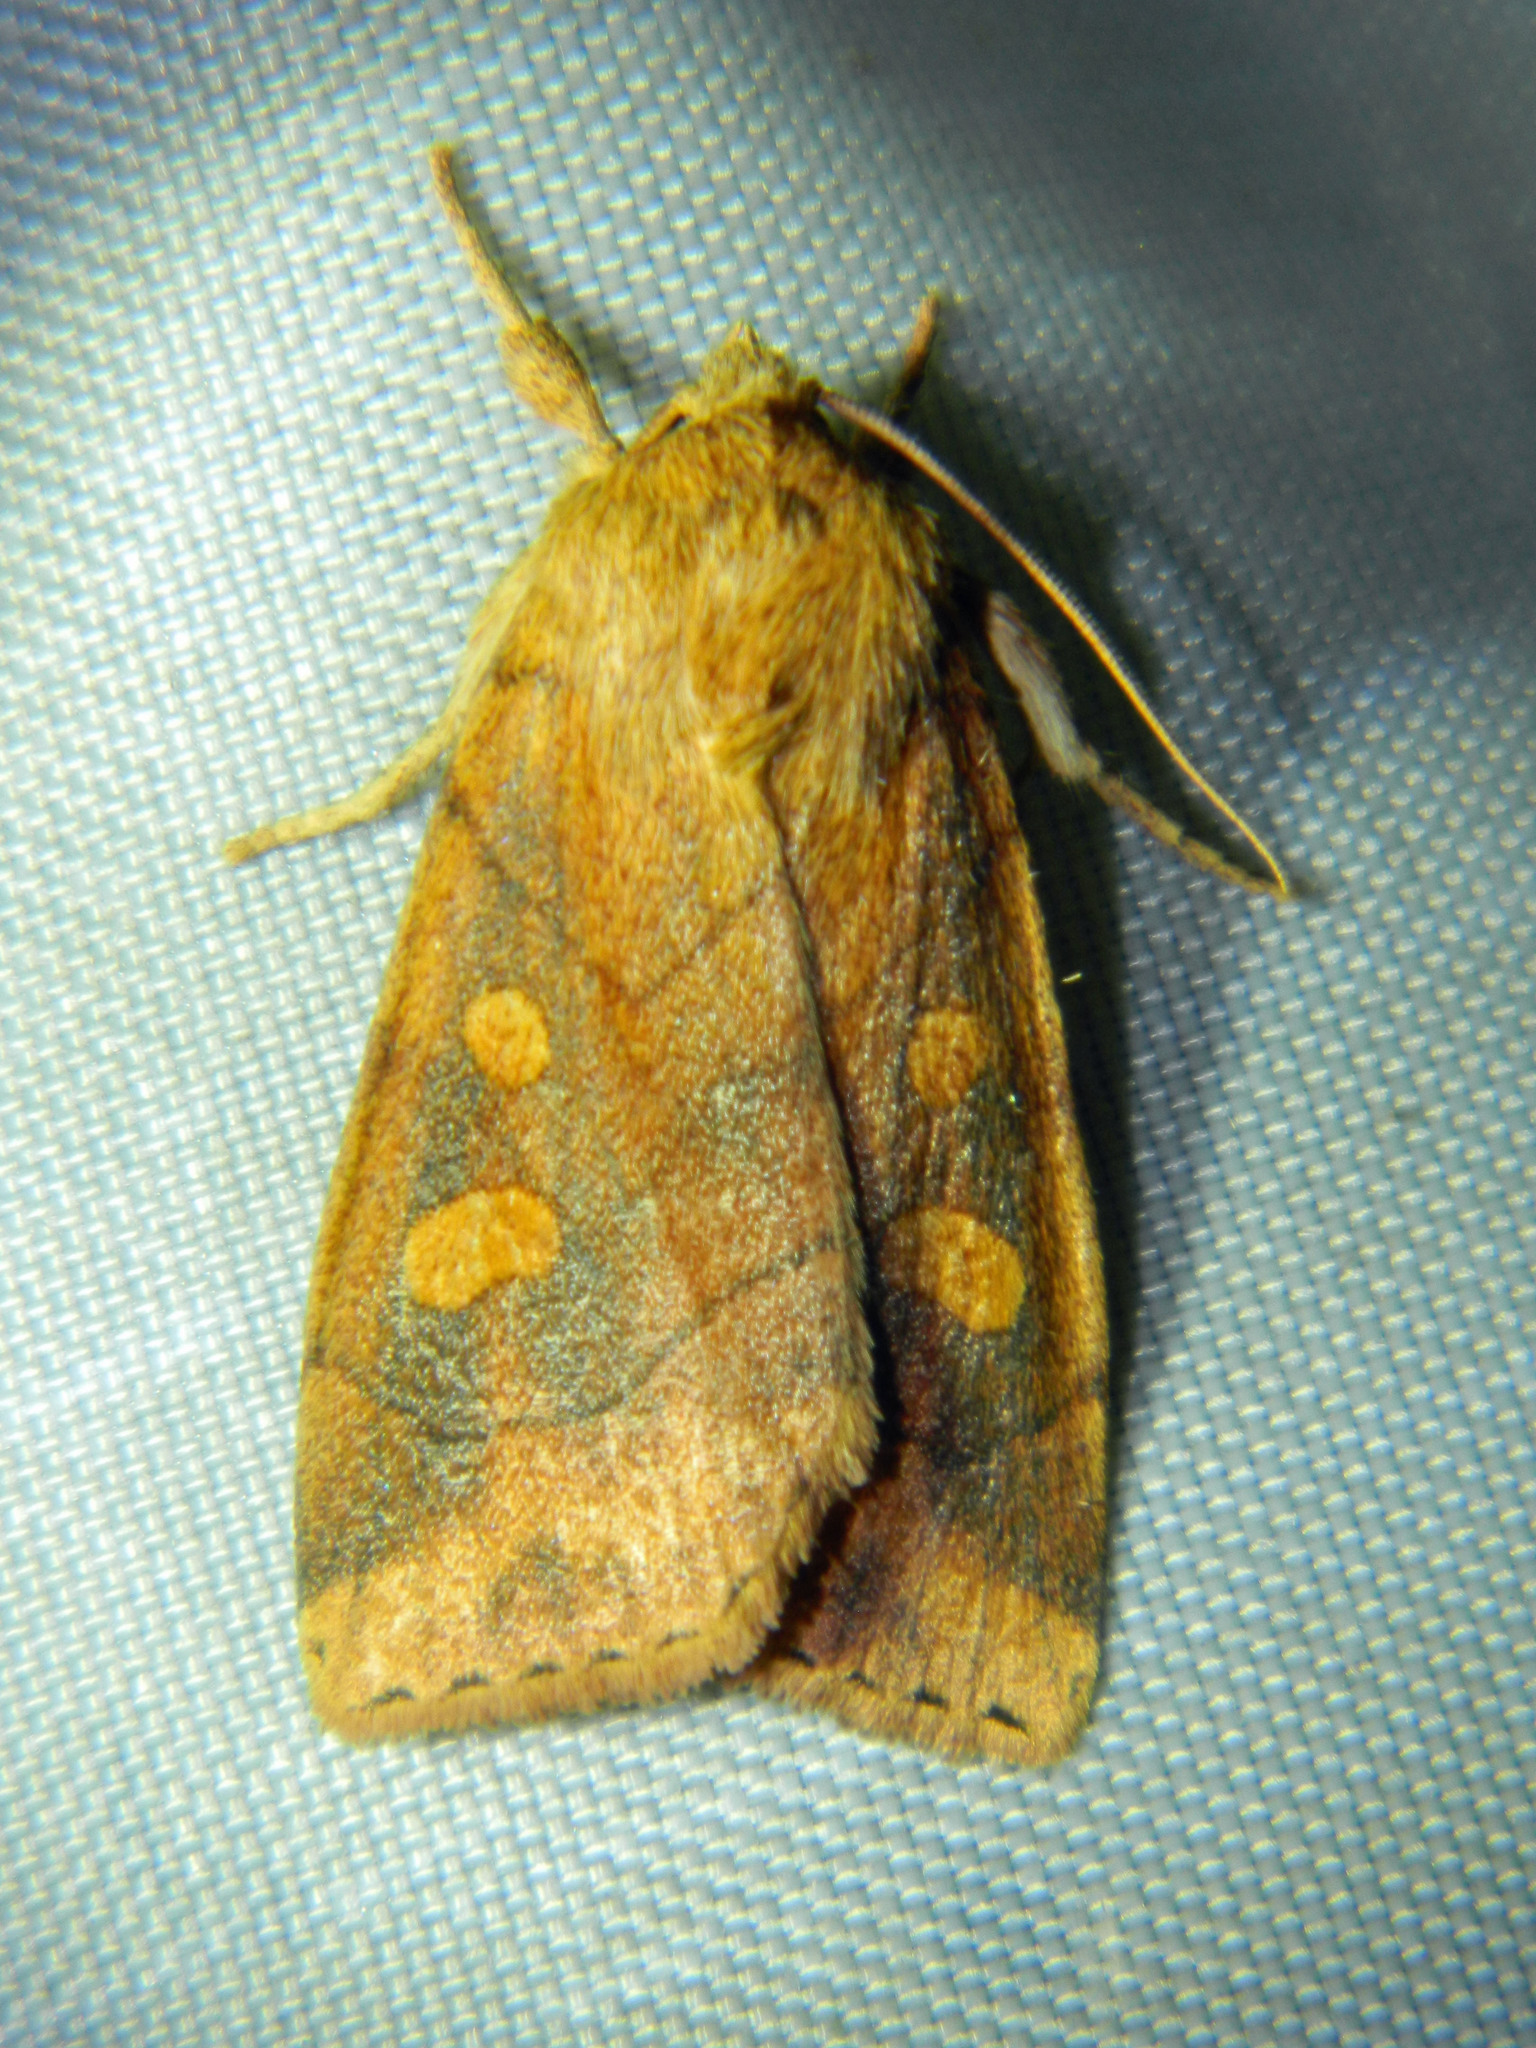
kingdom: Animalia
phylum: Arthropoda
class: Insecta
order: Lepidoptera
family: Noctuidae
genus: Enargia
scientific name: Enargia decolor
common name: Aspen twoleaf tier moth
